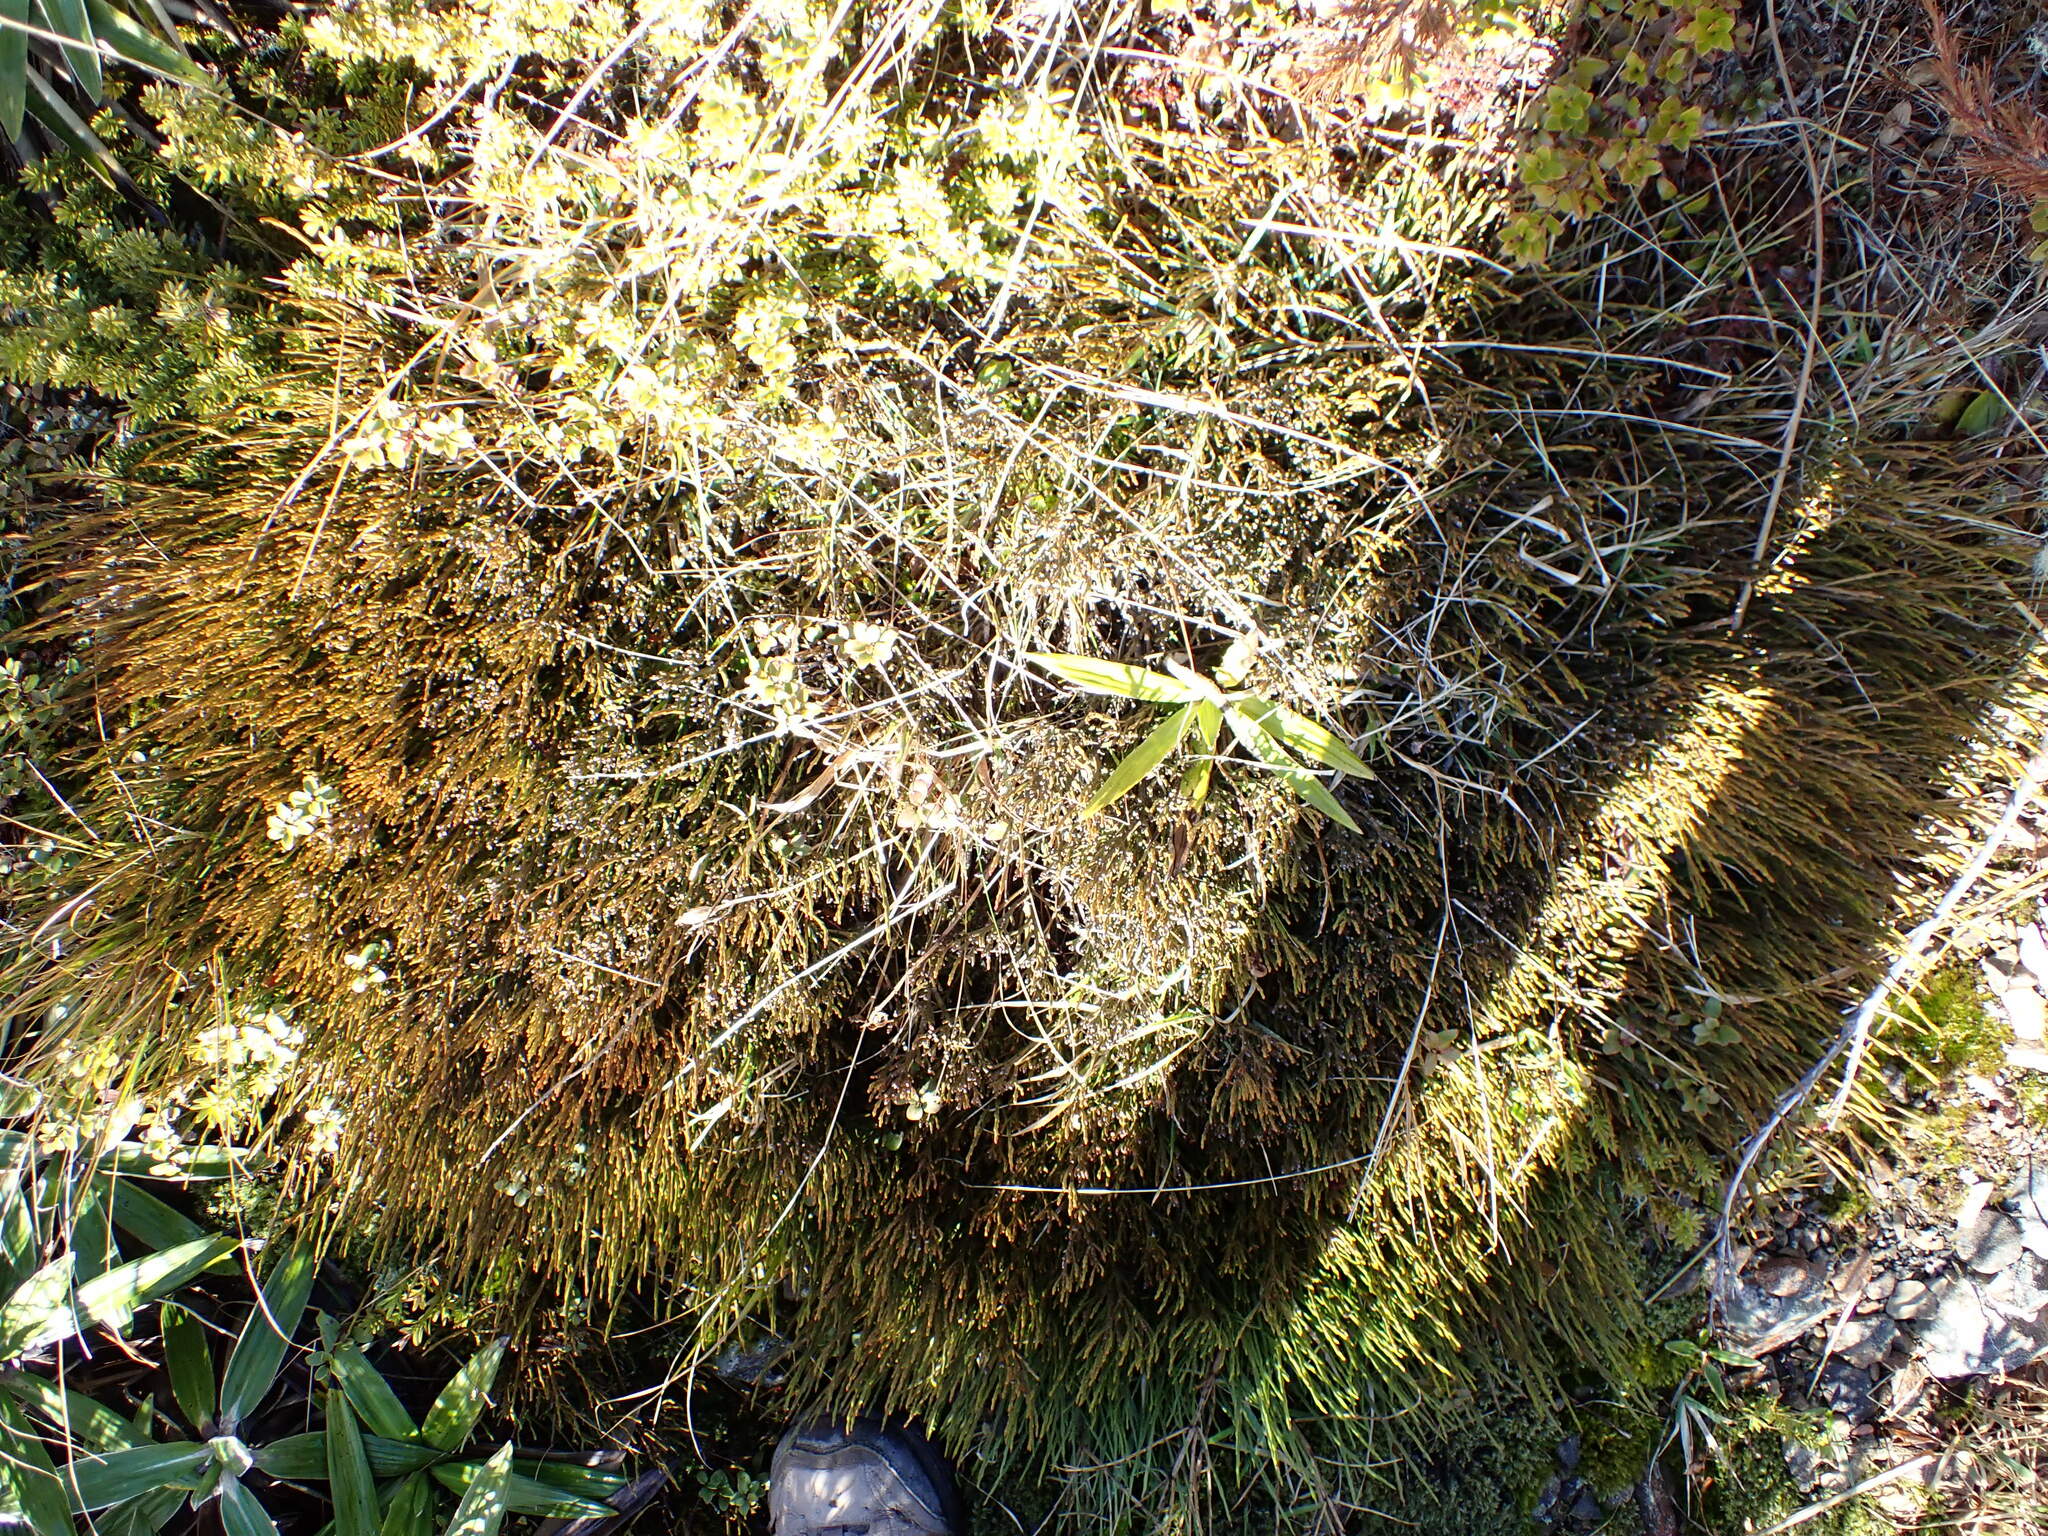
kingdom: Plantae
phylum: Tracheophyta
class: Magnoliopsida
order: Santalales
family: Santalaceae
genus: Exocarpos
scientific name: Exocarpos bidwillii
